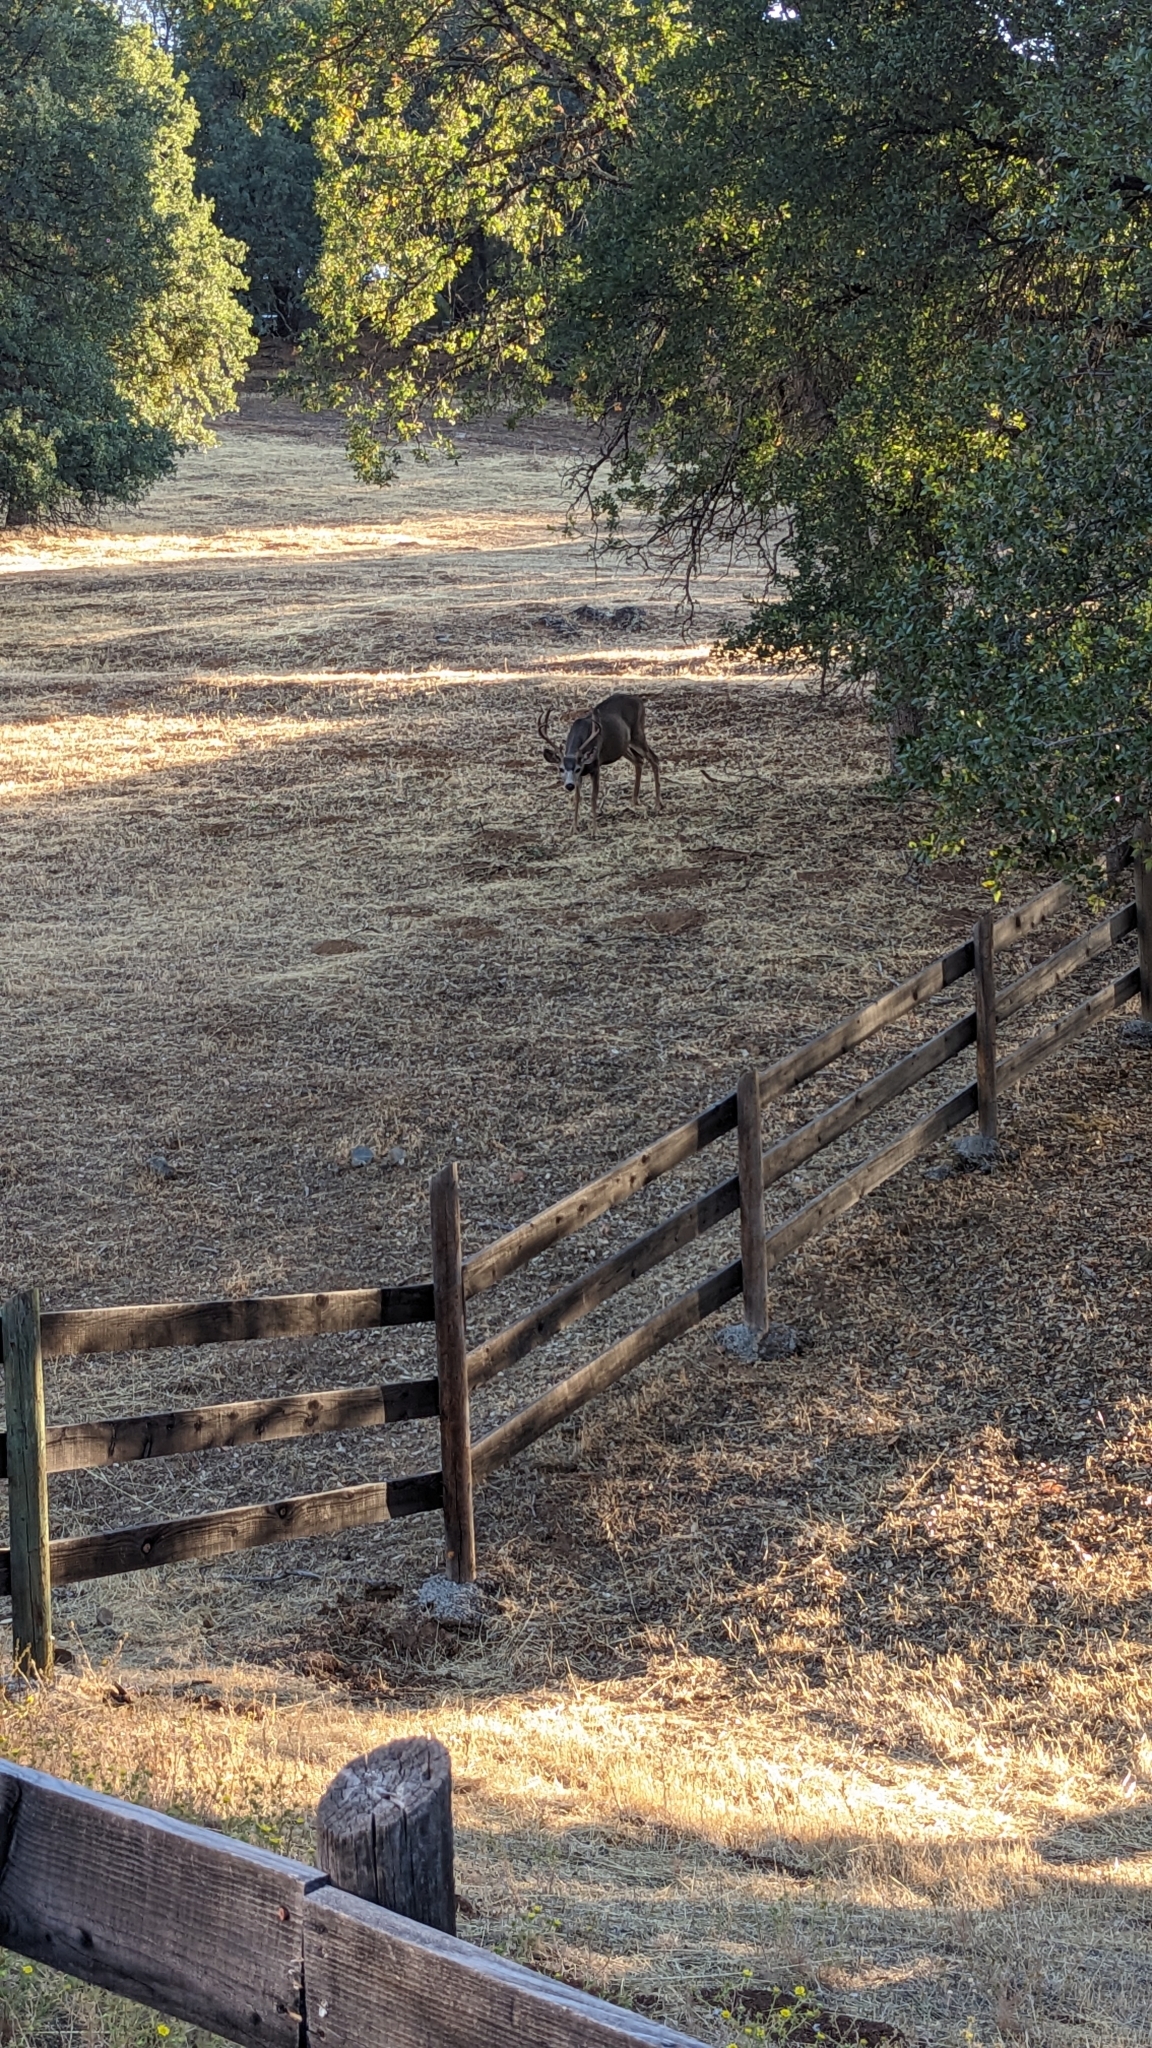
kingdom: Animalia
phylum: Chordata
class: Mammalia
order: Artiodactyla
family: Cervidae
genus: Odocoileus
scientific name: Odocoileus hemionus
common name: Mule deer
